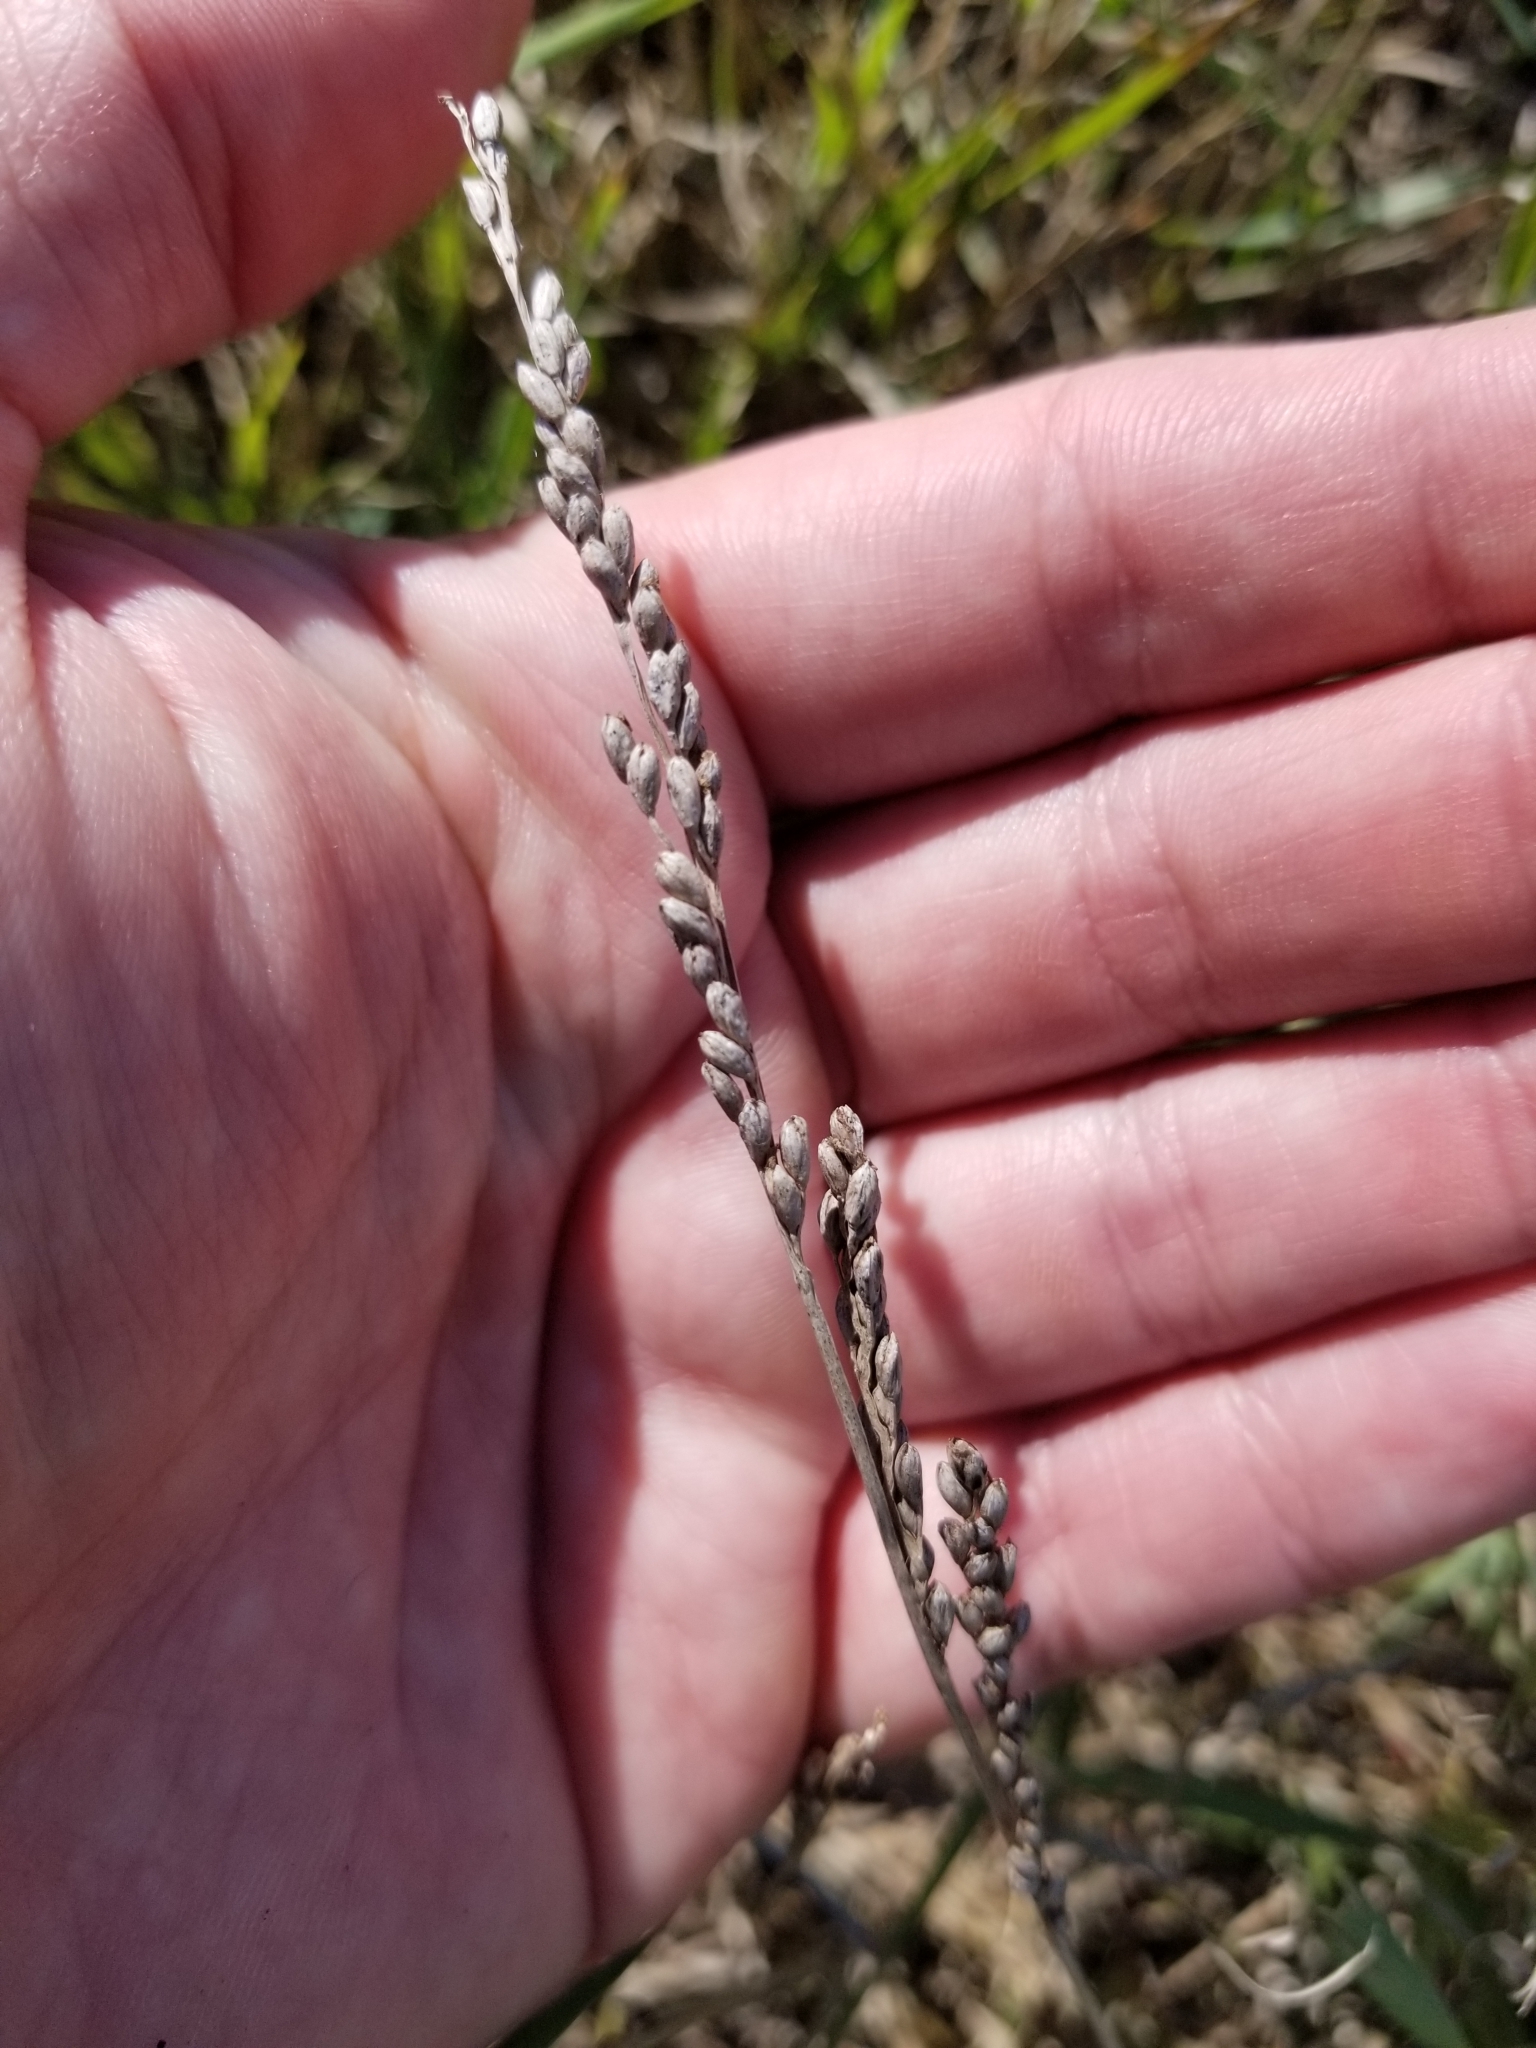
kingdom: Plantae
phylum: Tracheophyta
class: Liliopsida
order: Poales
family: Poaceae
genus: Hopia
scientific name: Hopia obtusa
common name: Vine-mesquite
